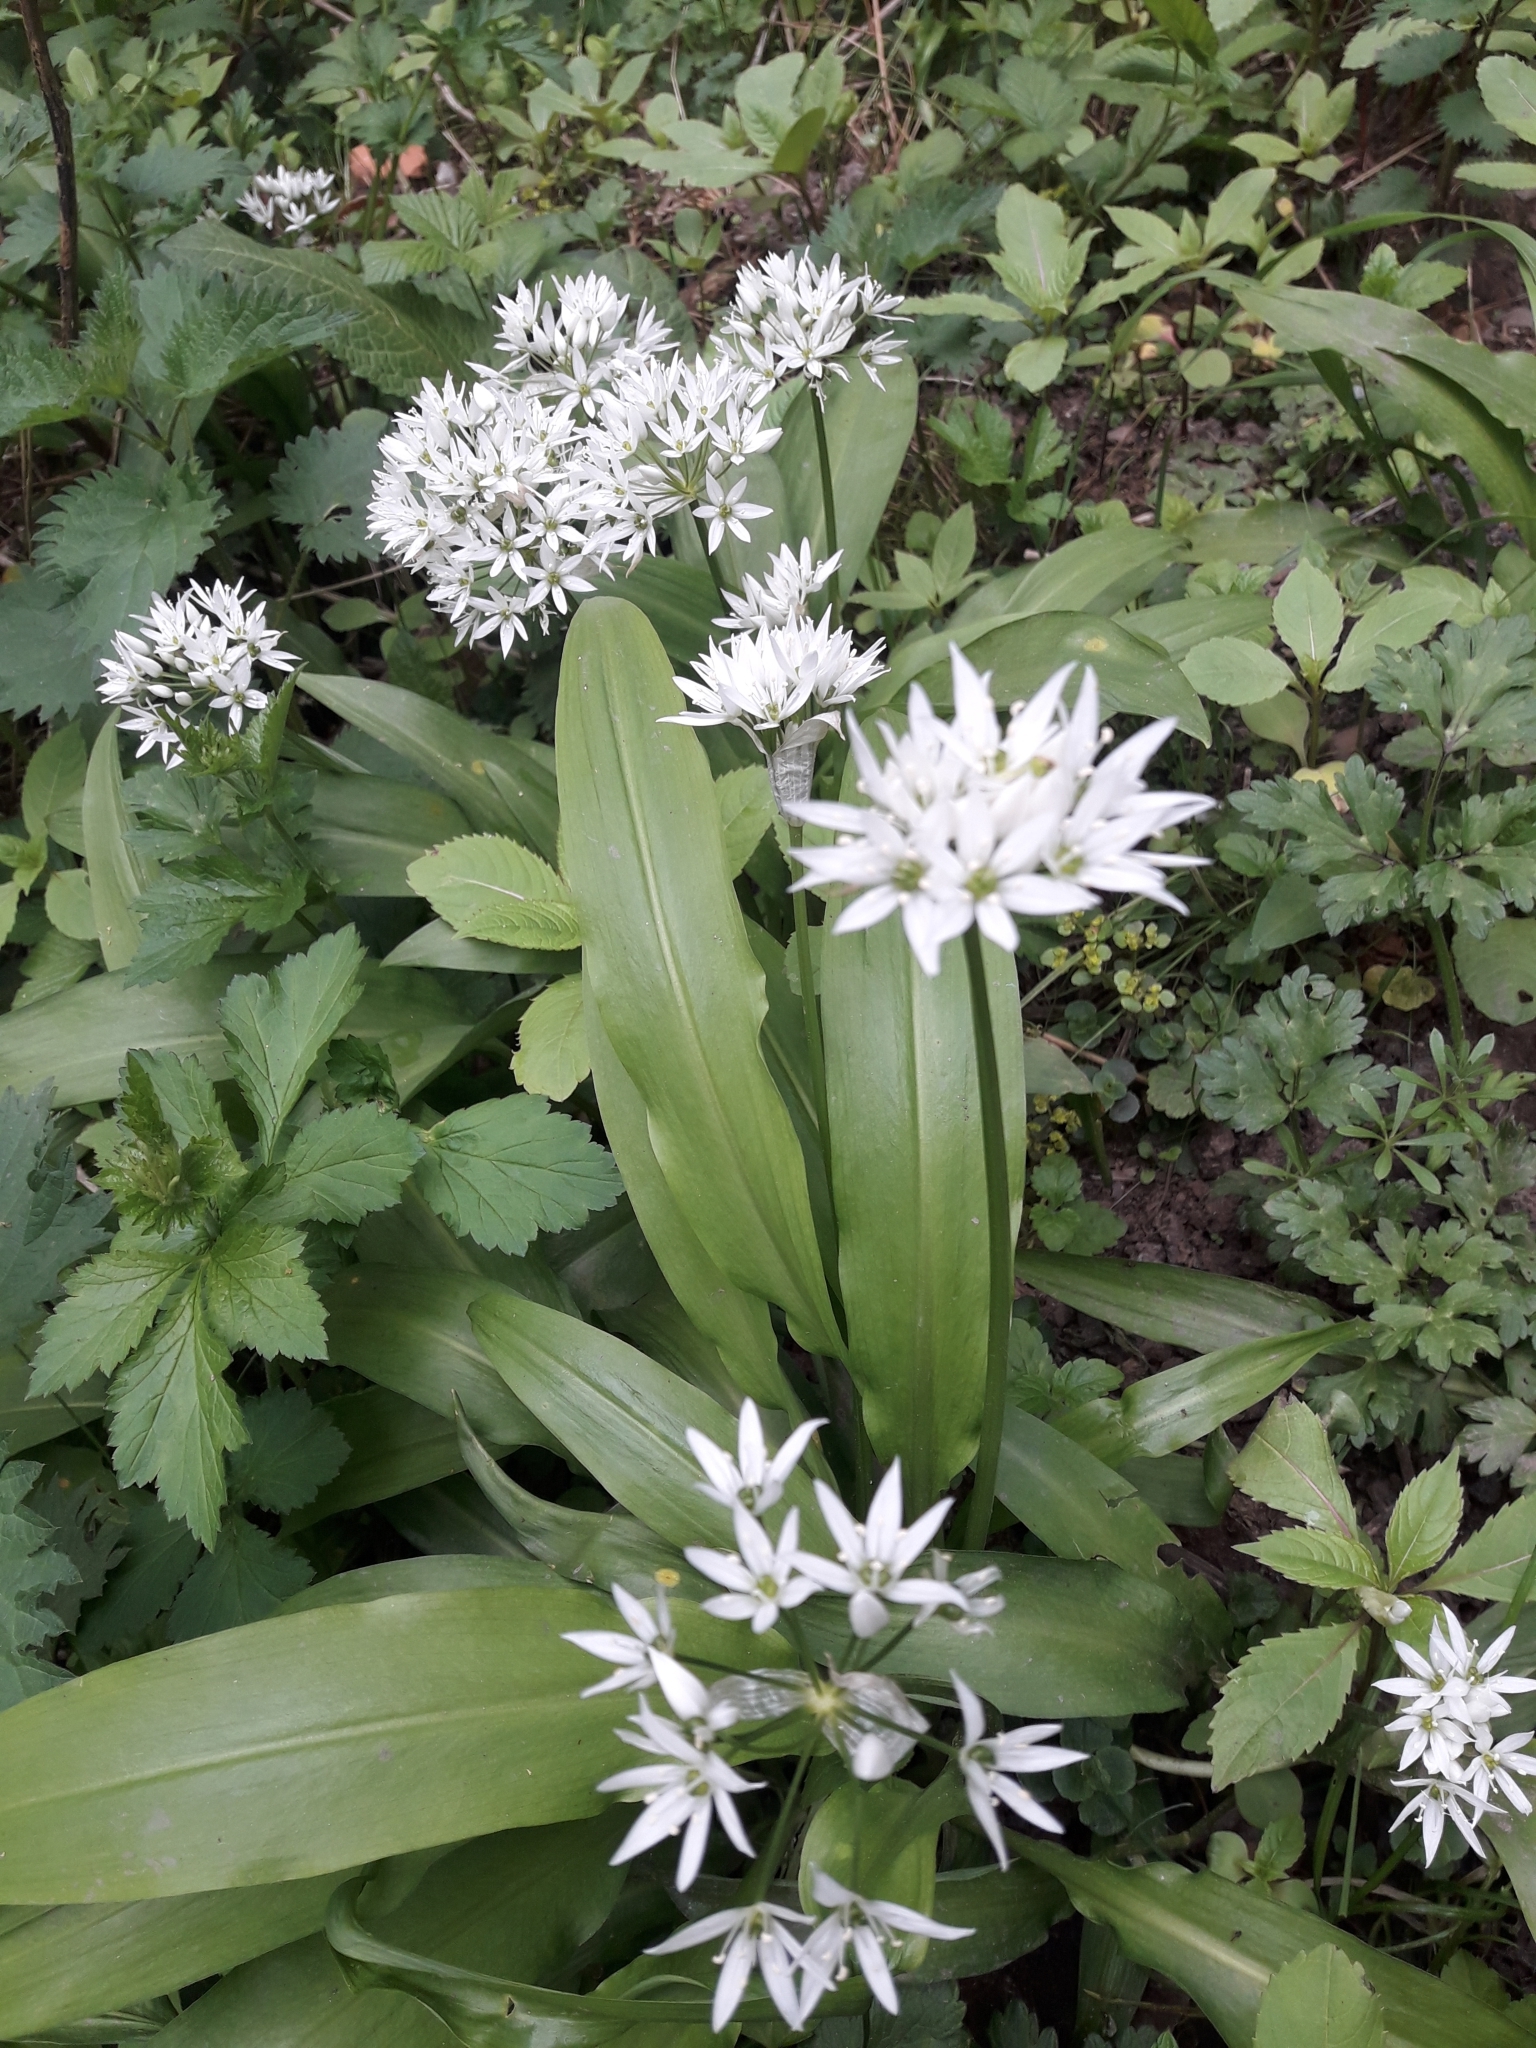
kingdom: Plantae
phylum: Tracheophyta
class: Liliopsida
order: Asparagales
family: Amaryllidaceae
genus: Allium
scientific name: Allium ursinum
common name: Ramsons
